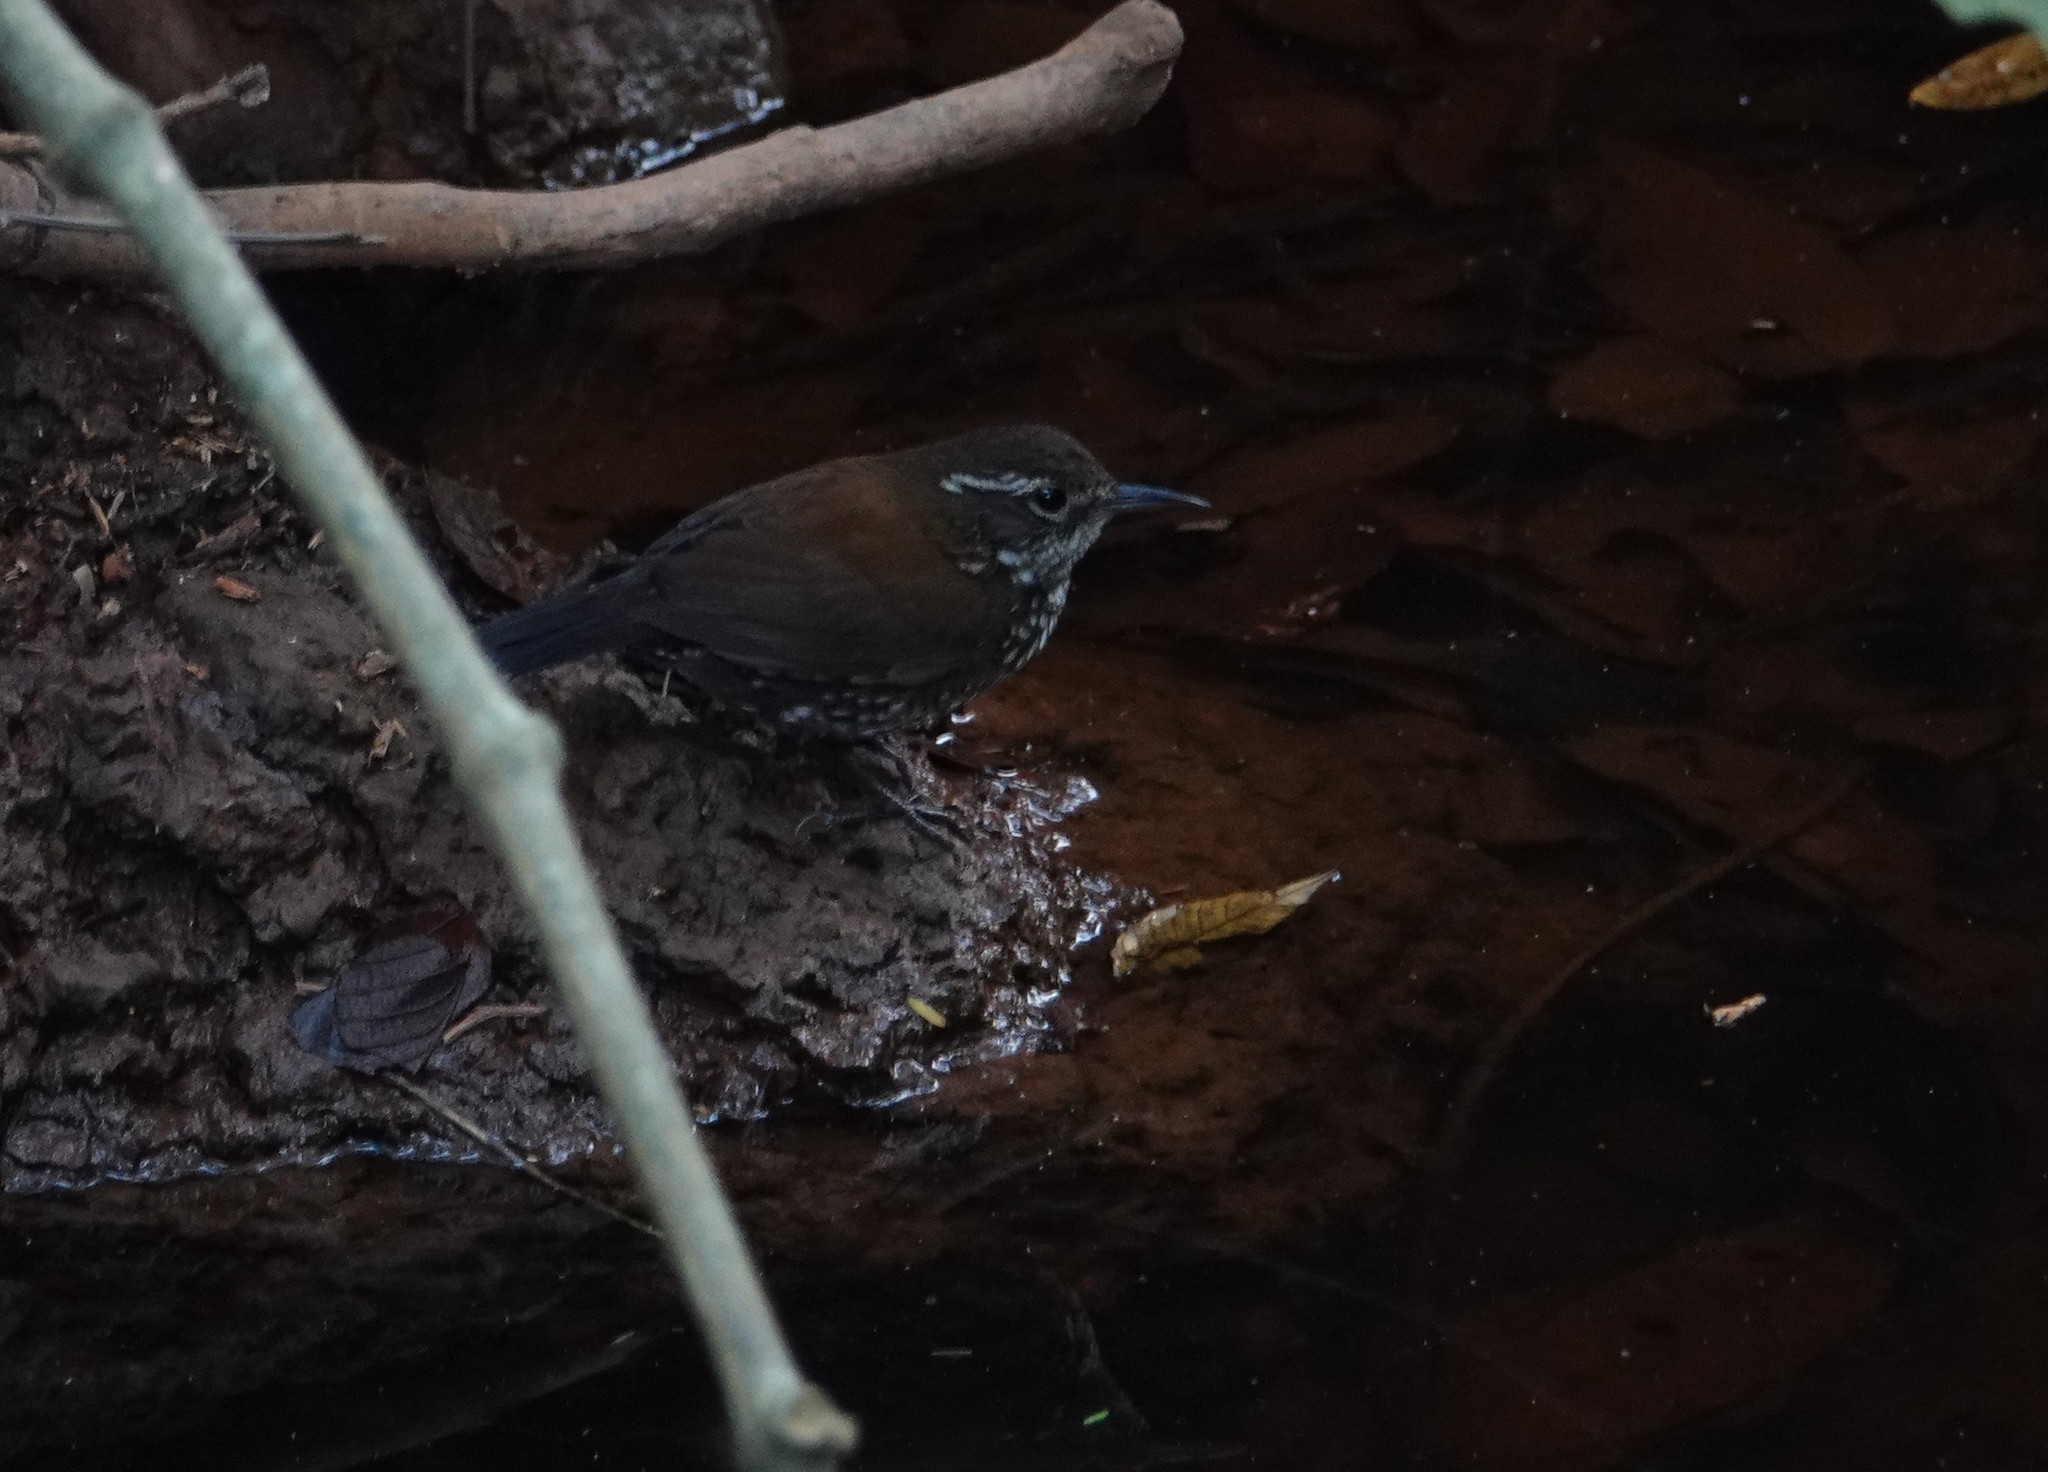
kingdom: Animalia
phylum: Chordata
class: Aves
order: Passeriformes
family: Furnariidae
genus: Lochmias
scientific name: Lochmias nematura
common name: Sharp-tailed streamcreeper
